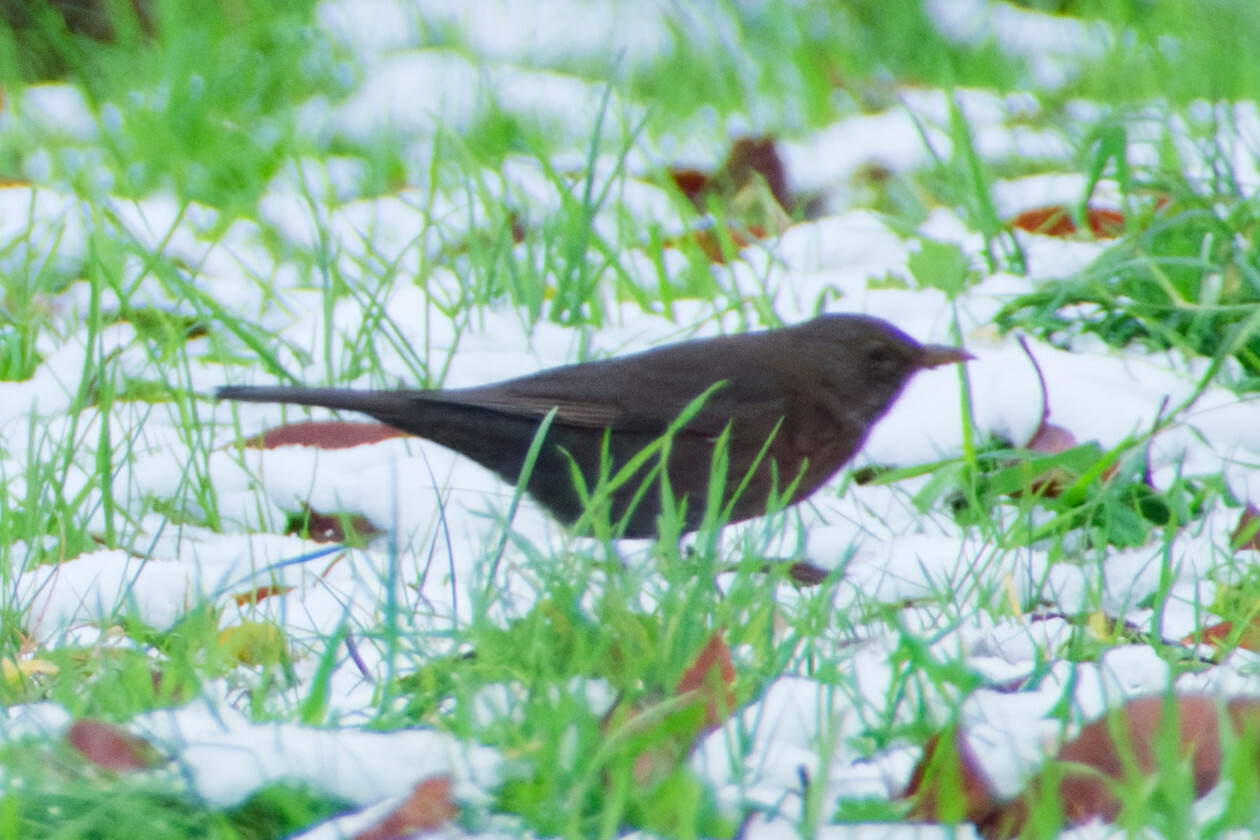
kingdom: Animalia
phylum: Chordata
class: Aves
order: Passeriformes
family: Turdidae
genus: Turdus
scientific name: Turdus merula
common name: Common blackbird
